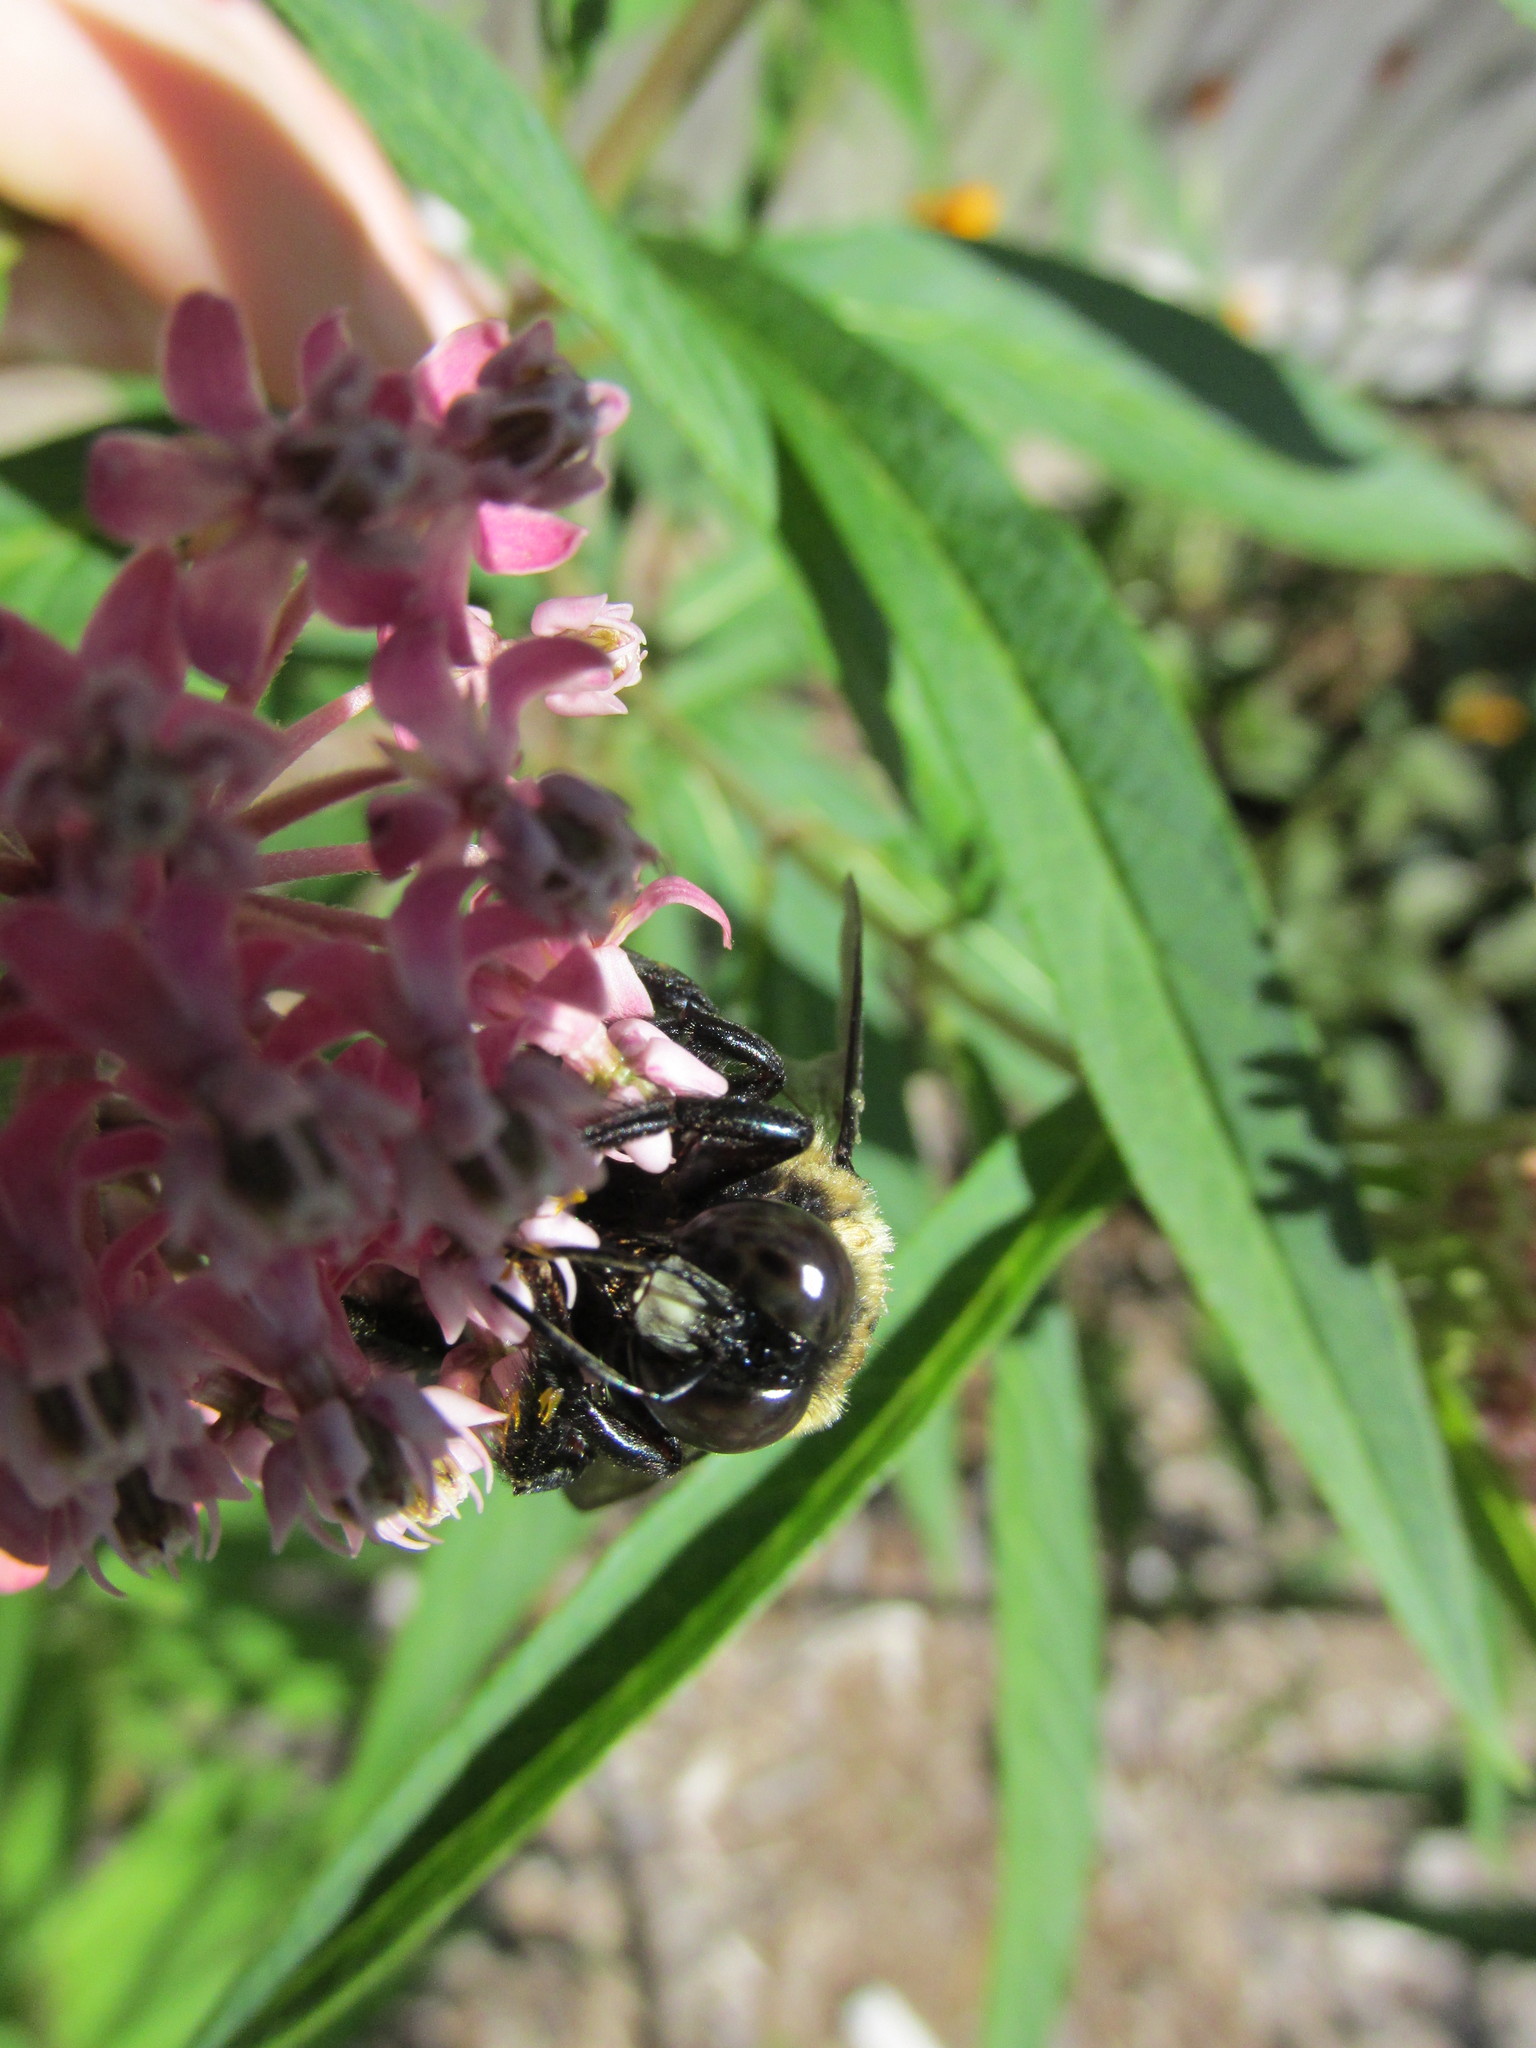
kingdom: Animalia
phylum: Arthropoda
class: Insecta
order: Hymenoptera
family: Apidae
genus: Xylocopa
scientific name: Xylocopa virginica
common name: Carpenter bee
